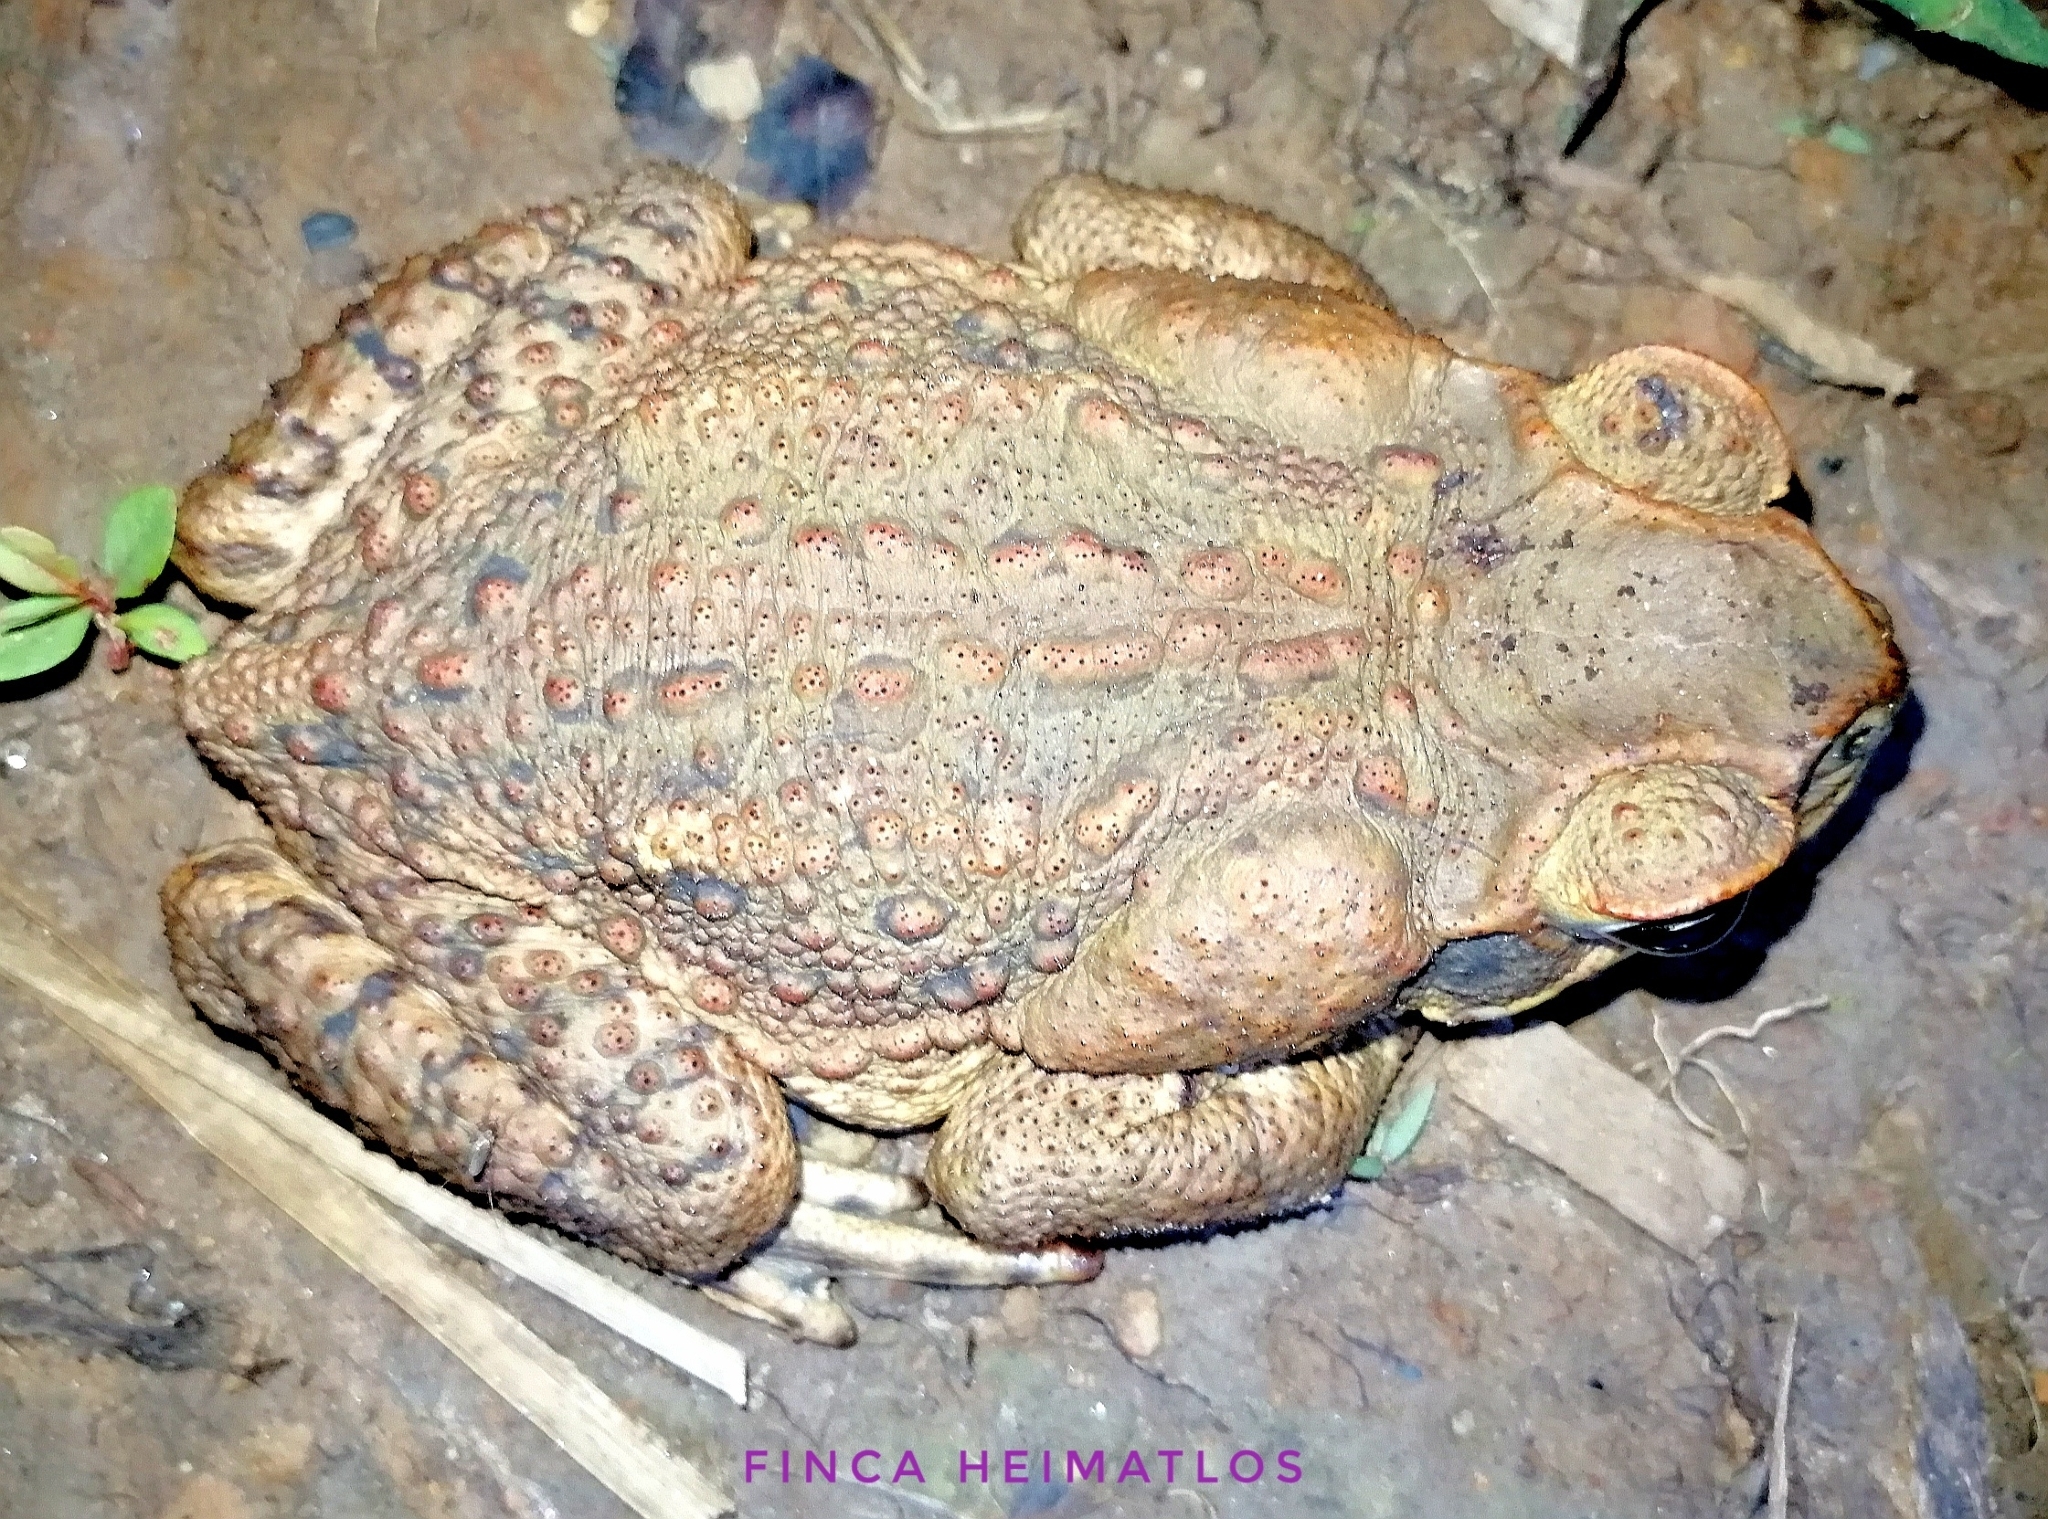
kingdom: Animalia
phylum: Chordata
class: Amphibia
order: Anura
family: Bufonidae
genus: Rhinella
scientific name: Rhinella marina
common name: Cane toad
